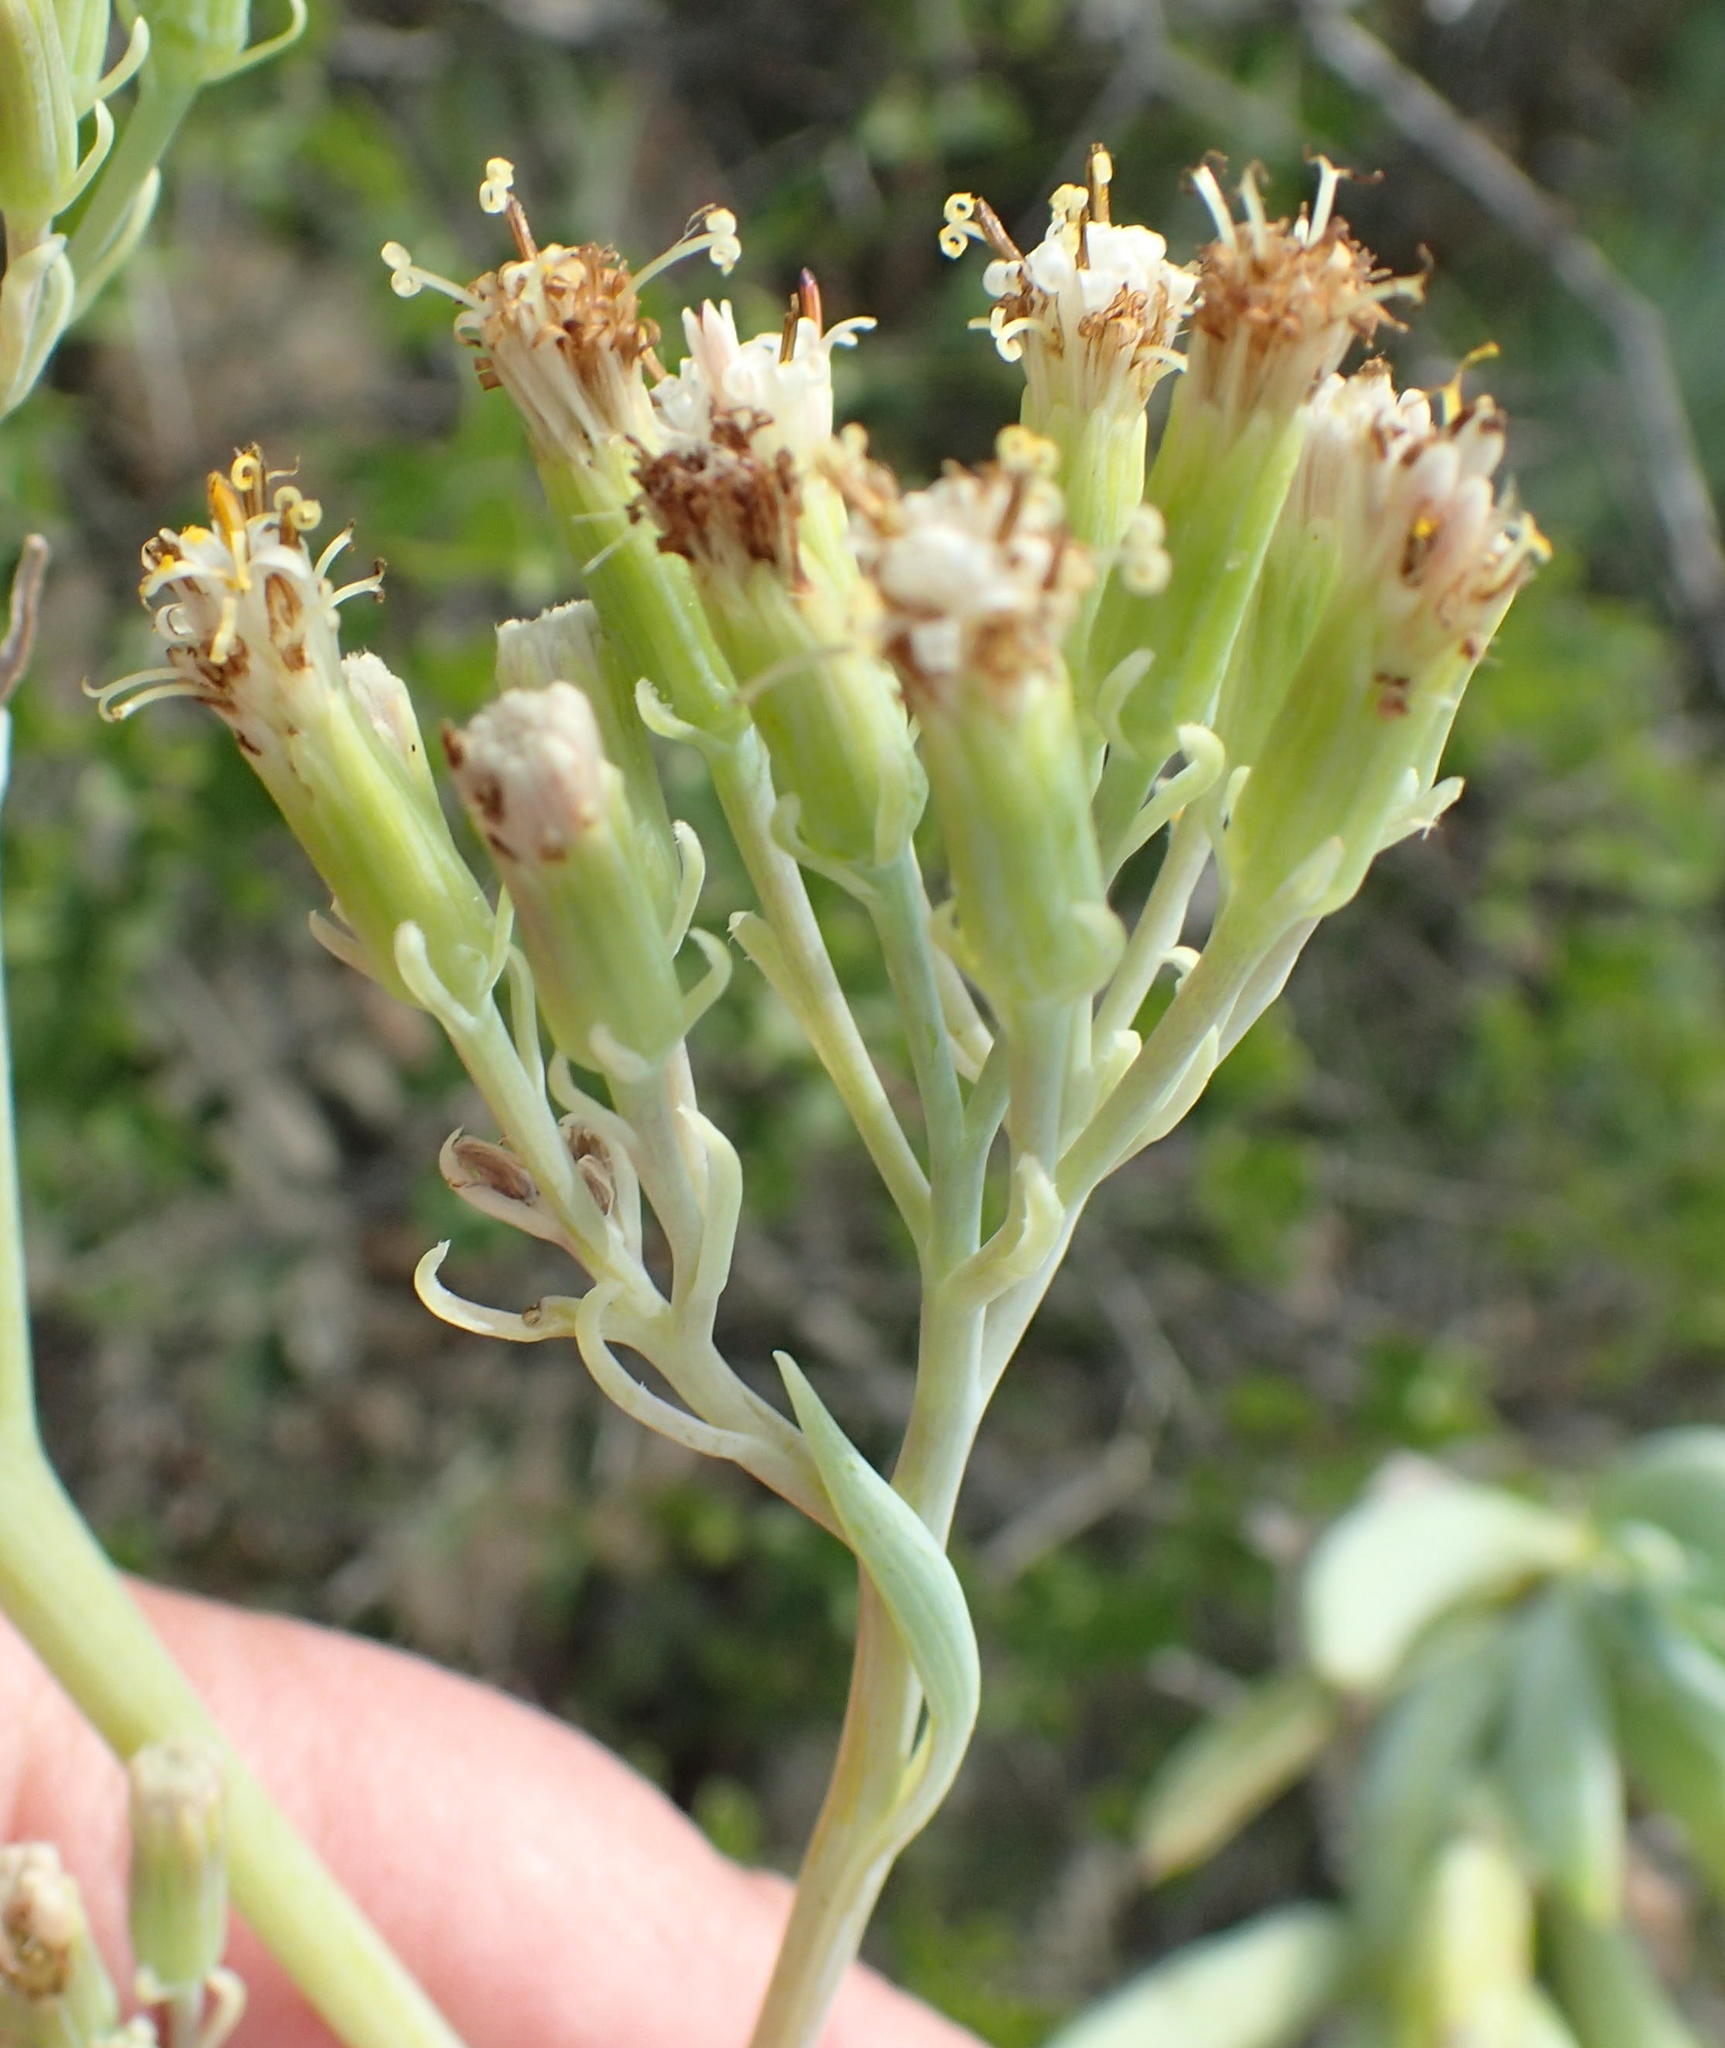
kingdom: Plantae
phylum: Tracheophyta
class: Magnoliopsida
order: Asterales
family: Asteraceae
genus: Curio
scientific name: Curio ficoides
